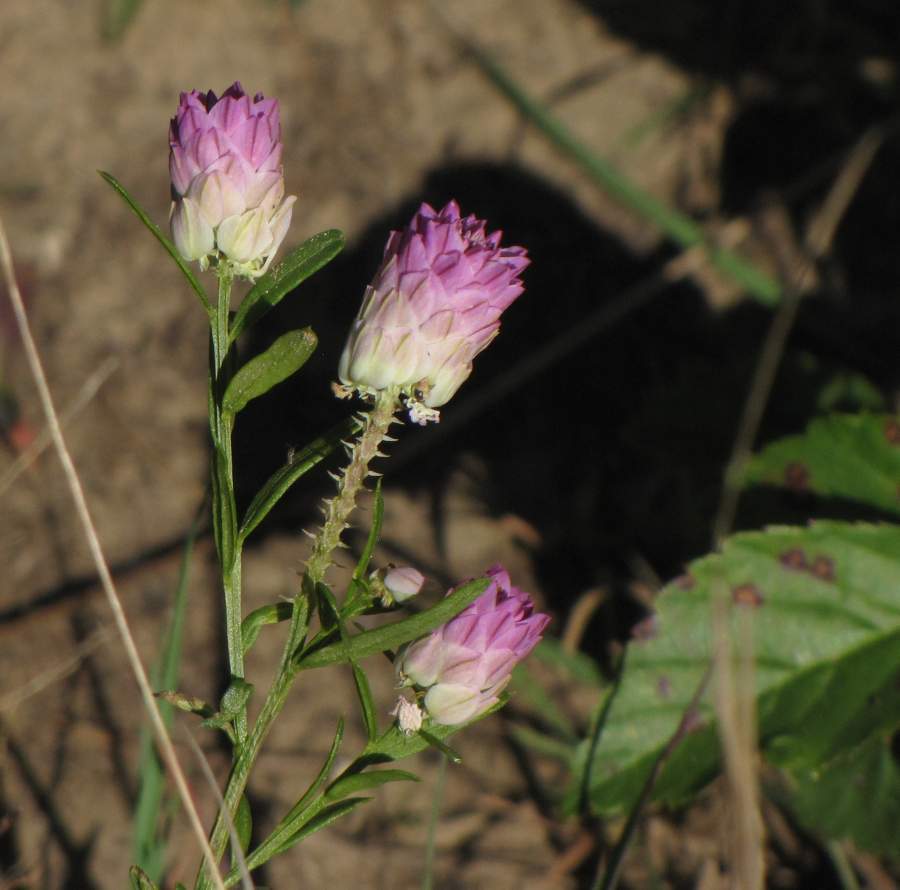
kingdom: Plantae
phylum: Tracheophyta
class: Magnoliopsida
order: Fabales
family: Polygalaceae
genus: Polygala
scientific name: Polygala sanguinea
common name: Blood milkwort
